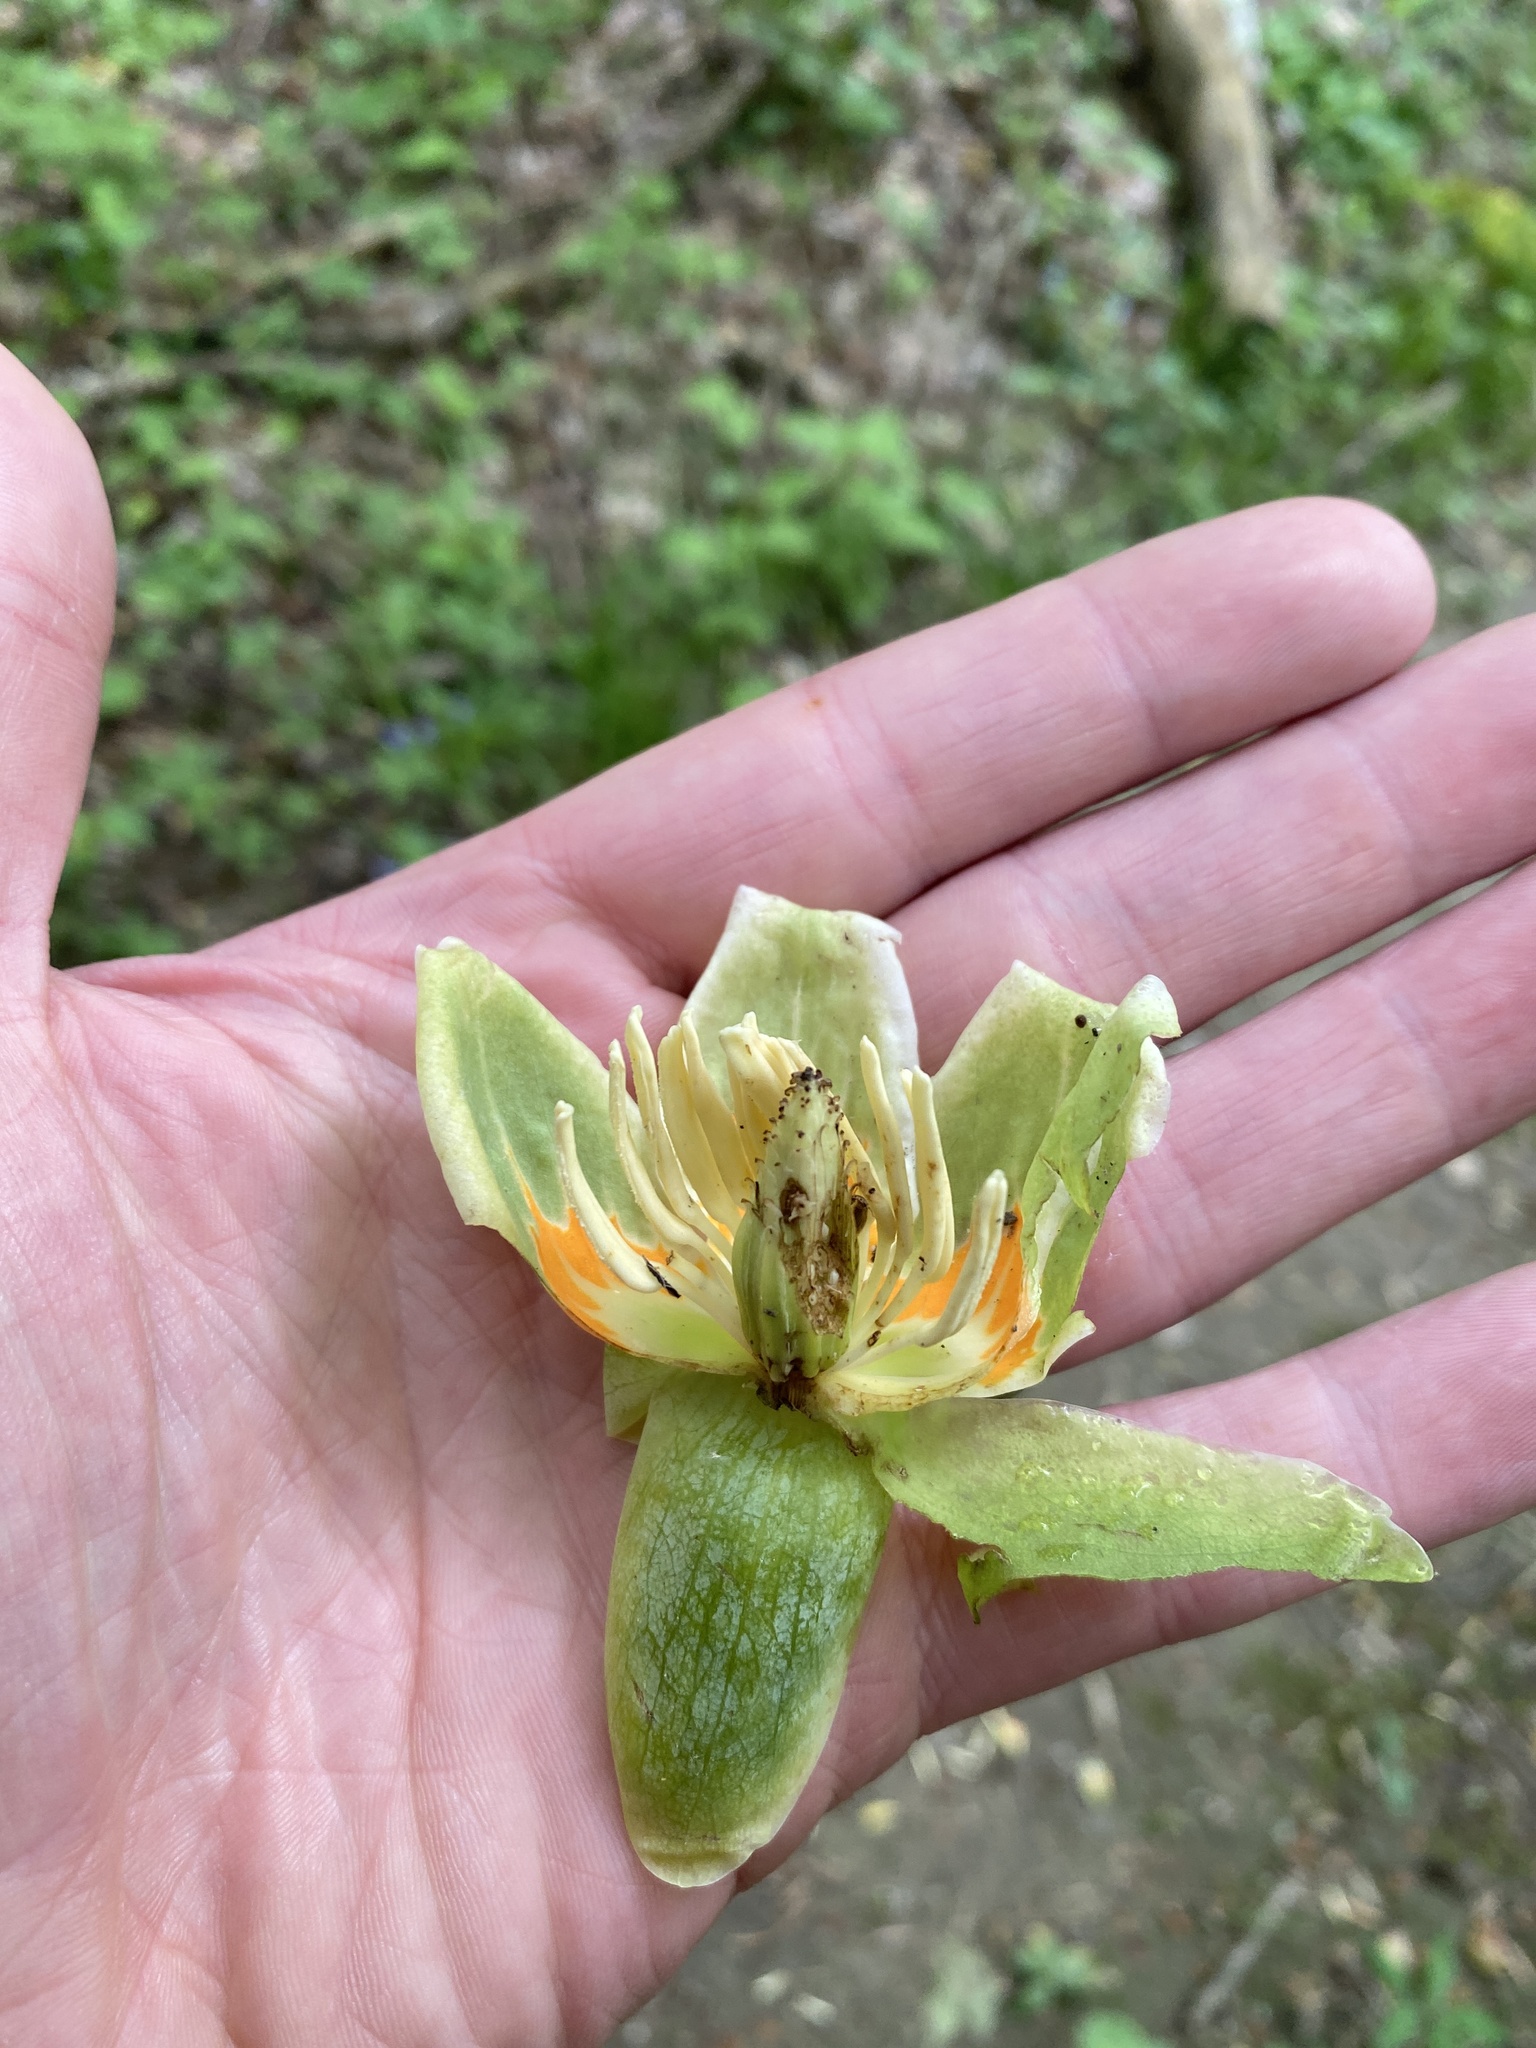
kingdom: Plantae
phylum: Tracheophyta
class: Magnoliopsida
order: Magnoliales
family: Magnoliaceae
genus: Liriodendron
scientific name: Liriodendron tulipifera
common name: Tulip tree
